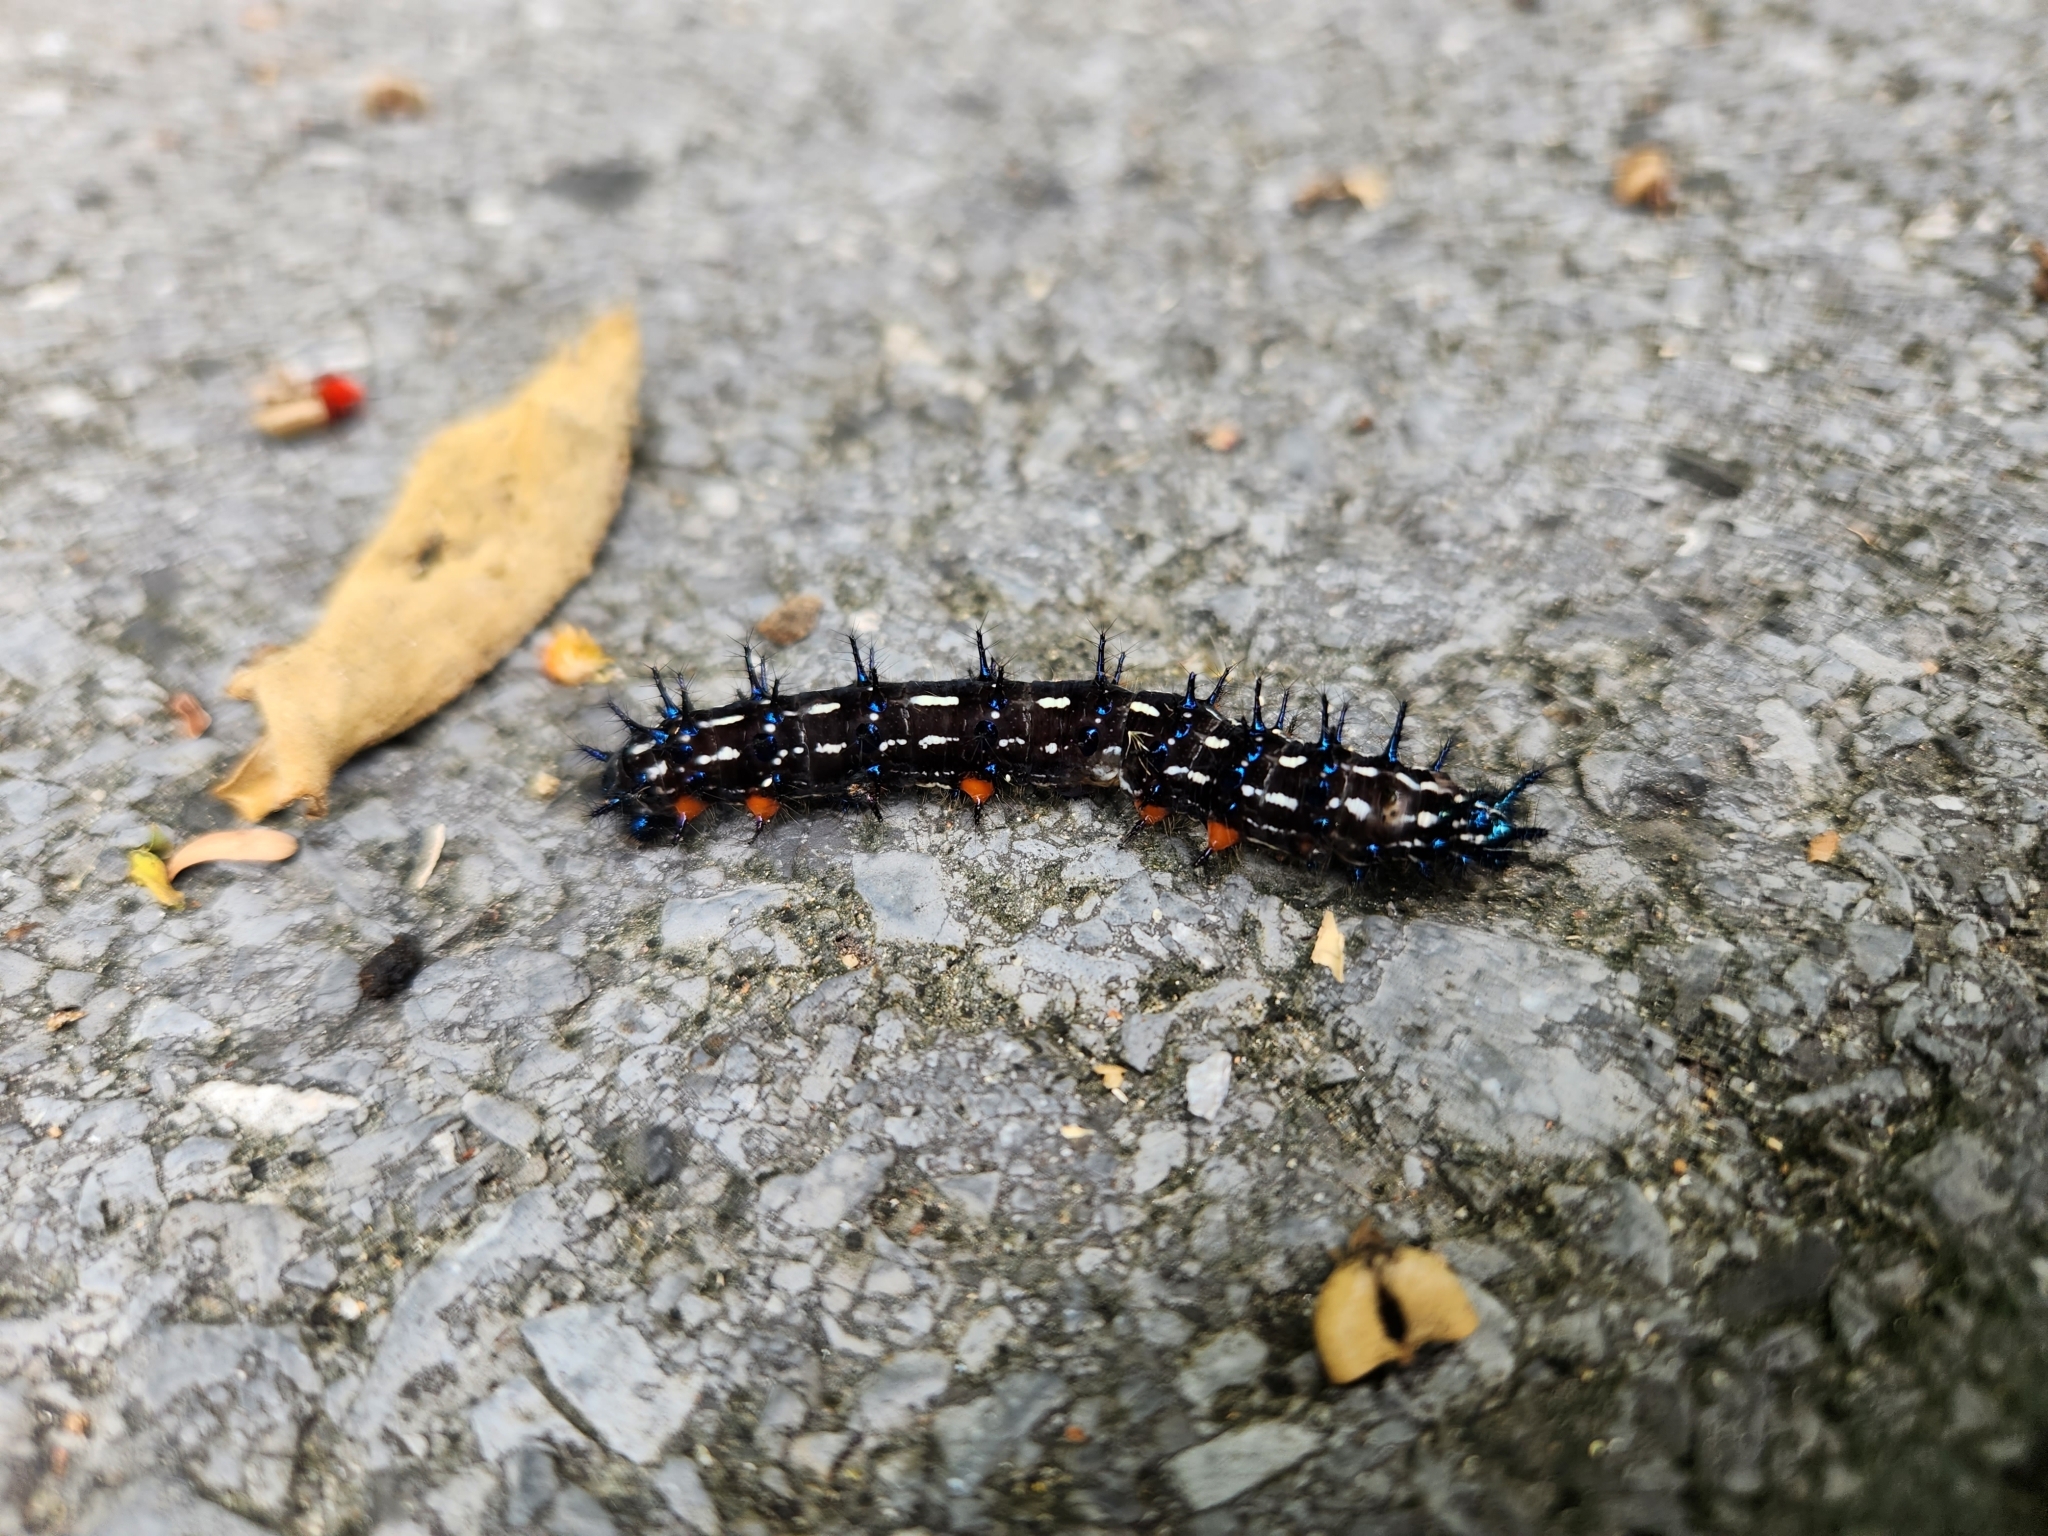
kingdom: Animalia
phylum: Arthropoda
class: Insecta
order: Lepidoptera
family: Nymphalidae
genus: Doleschallia
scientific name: Doleschallia bisaltide
